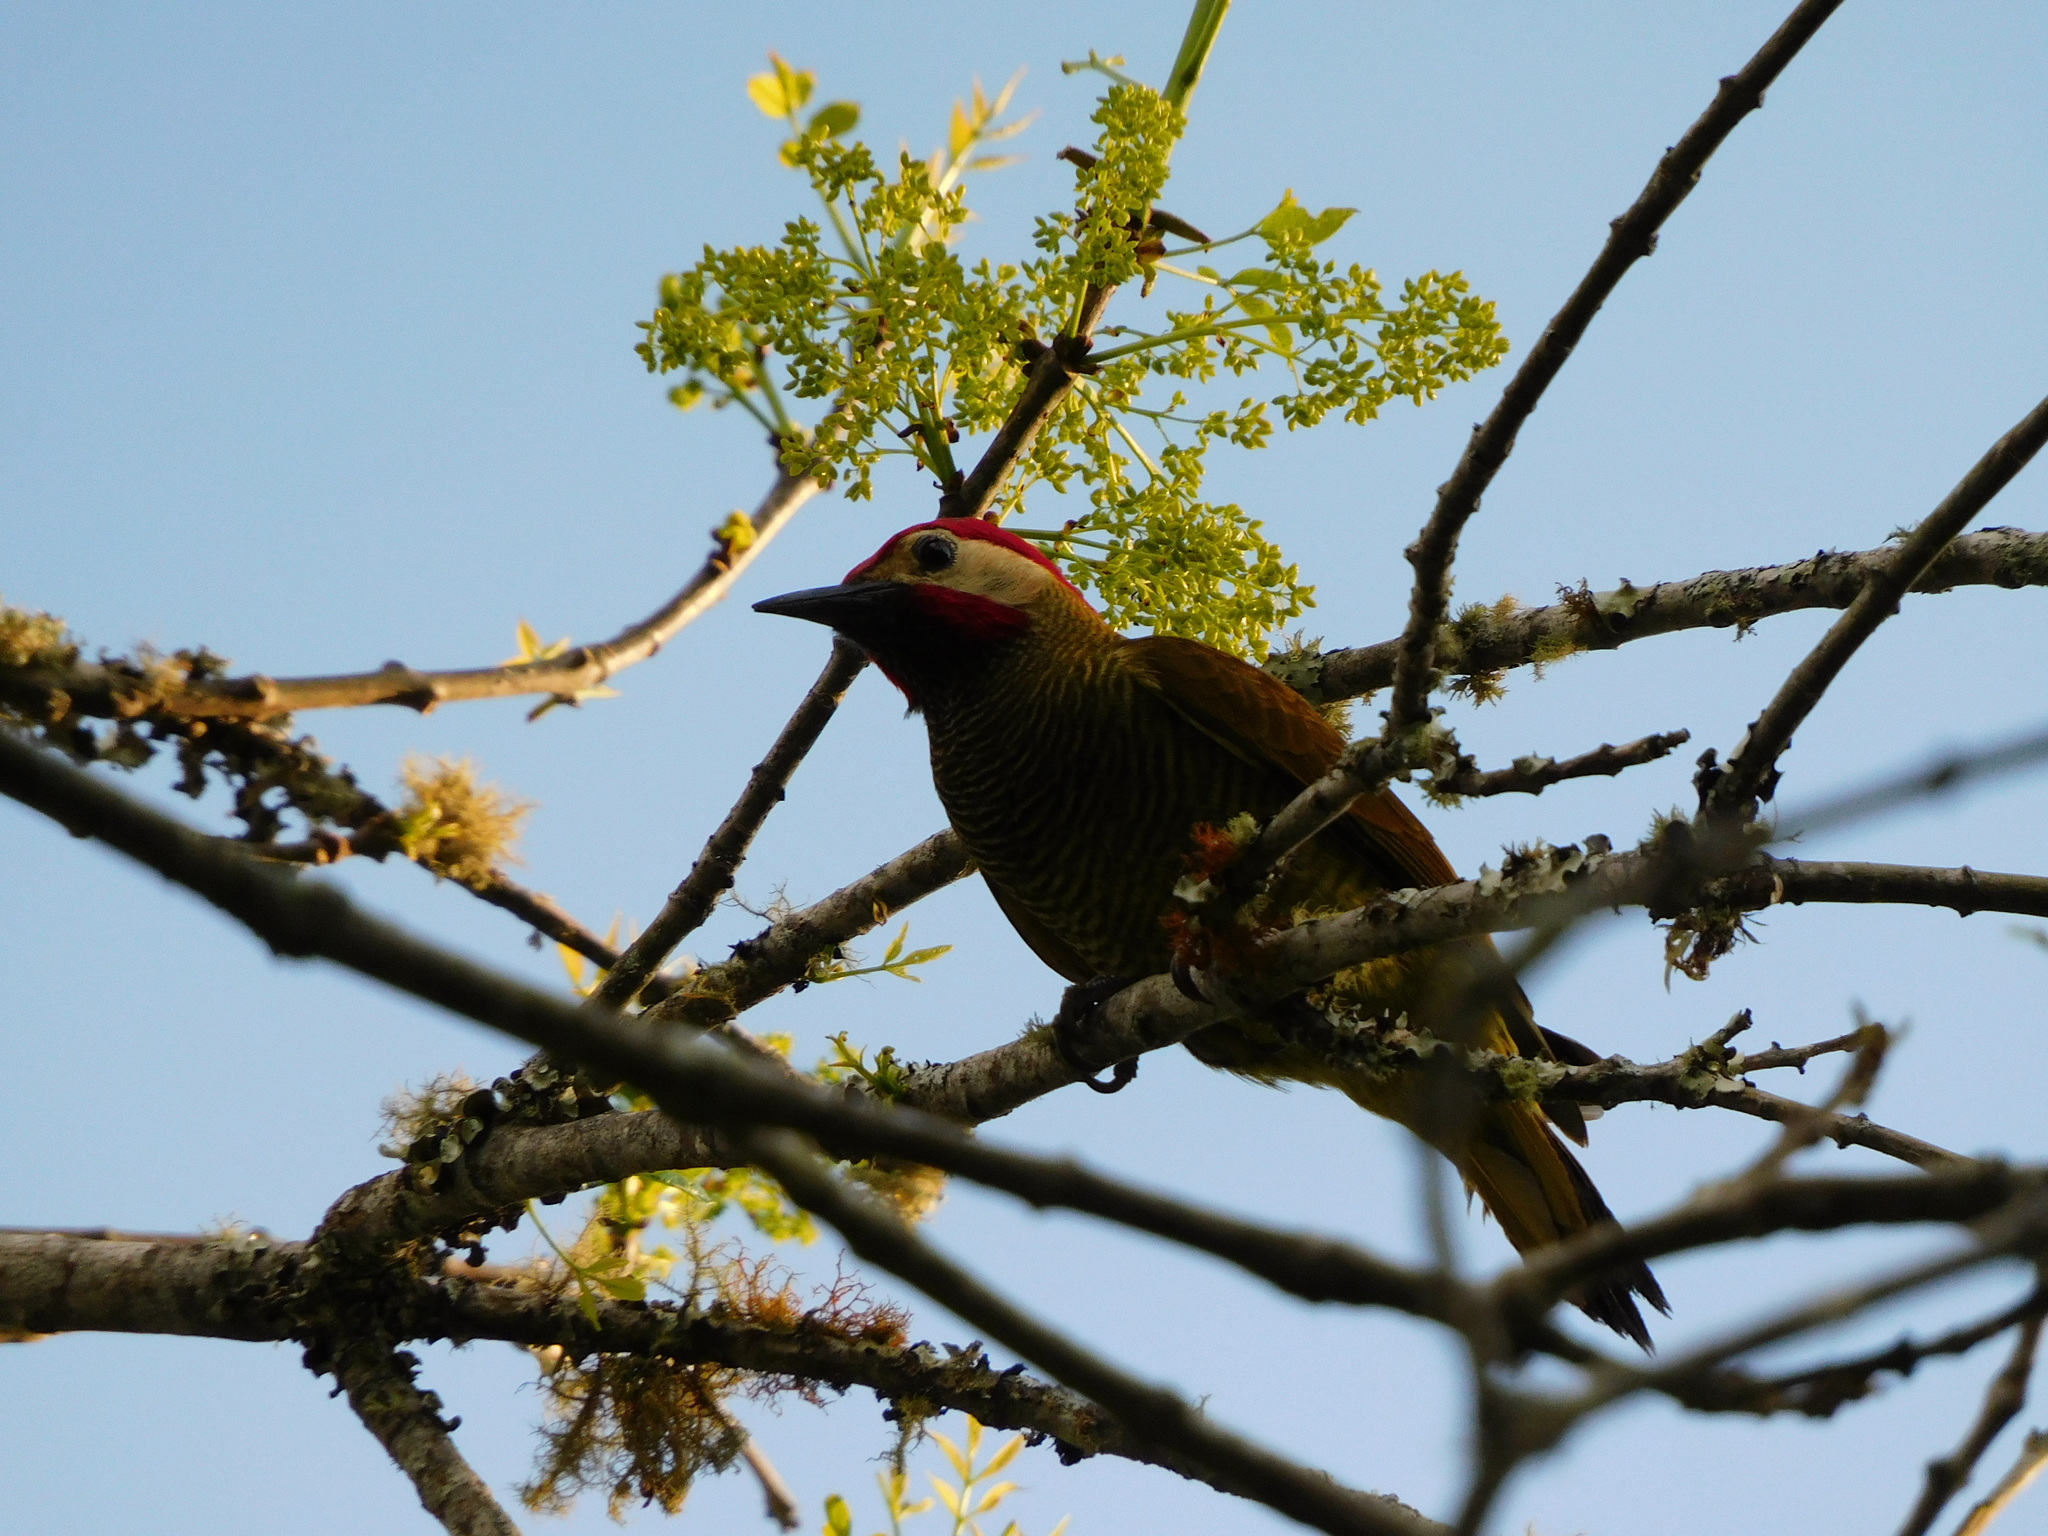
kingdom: Animalia
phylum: Chordata
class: Aves
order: Piciformes
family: Picidae
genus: Colaptes
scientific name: Colaptes rubiginosus
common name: Golden-olive woodpecker
